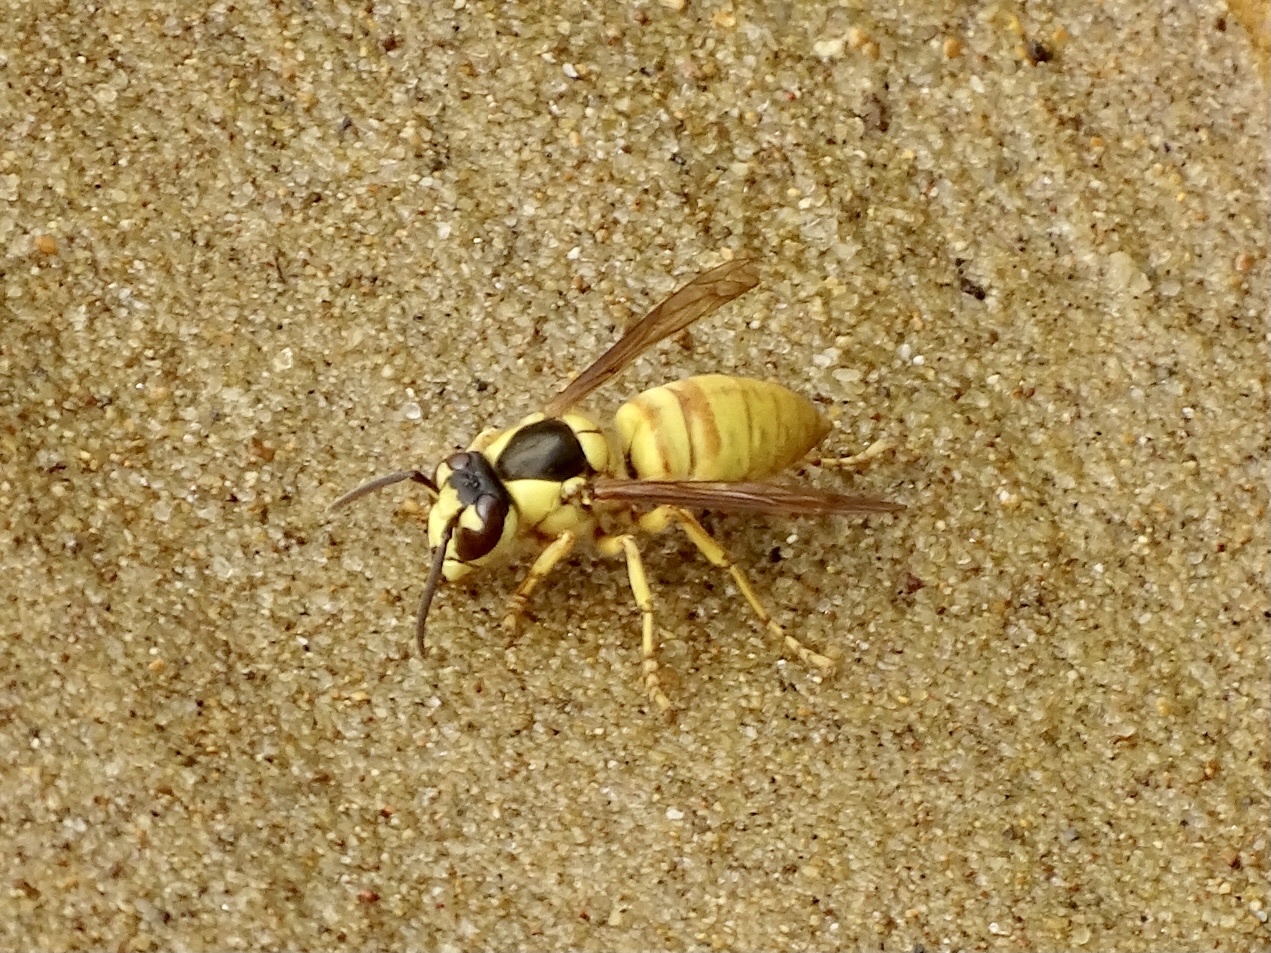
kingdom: Animalia
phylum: Arthropoda
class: Insecta
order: Hymenoptera
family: Vespidae
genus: Vespa
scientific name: Vespa bicolor
